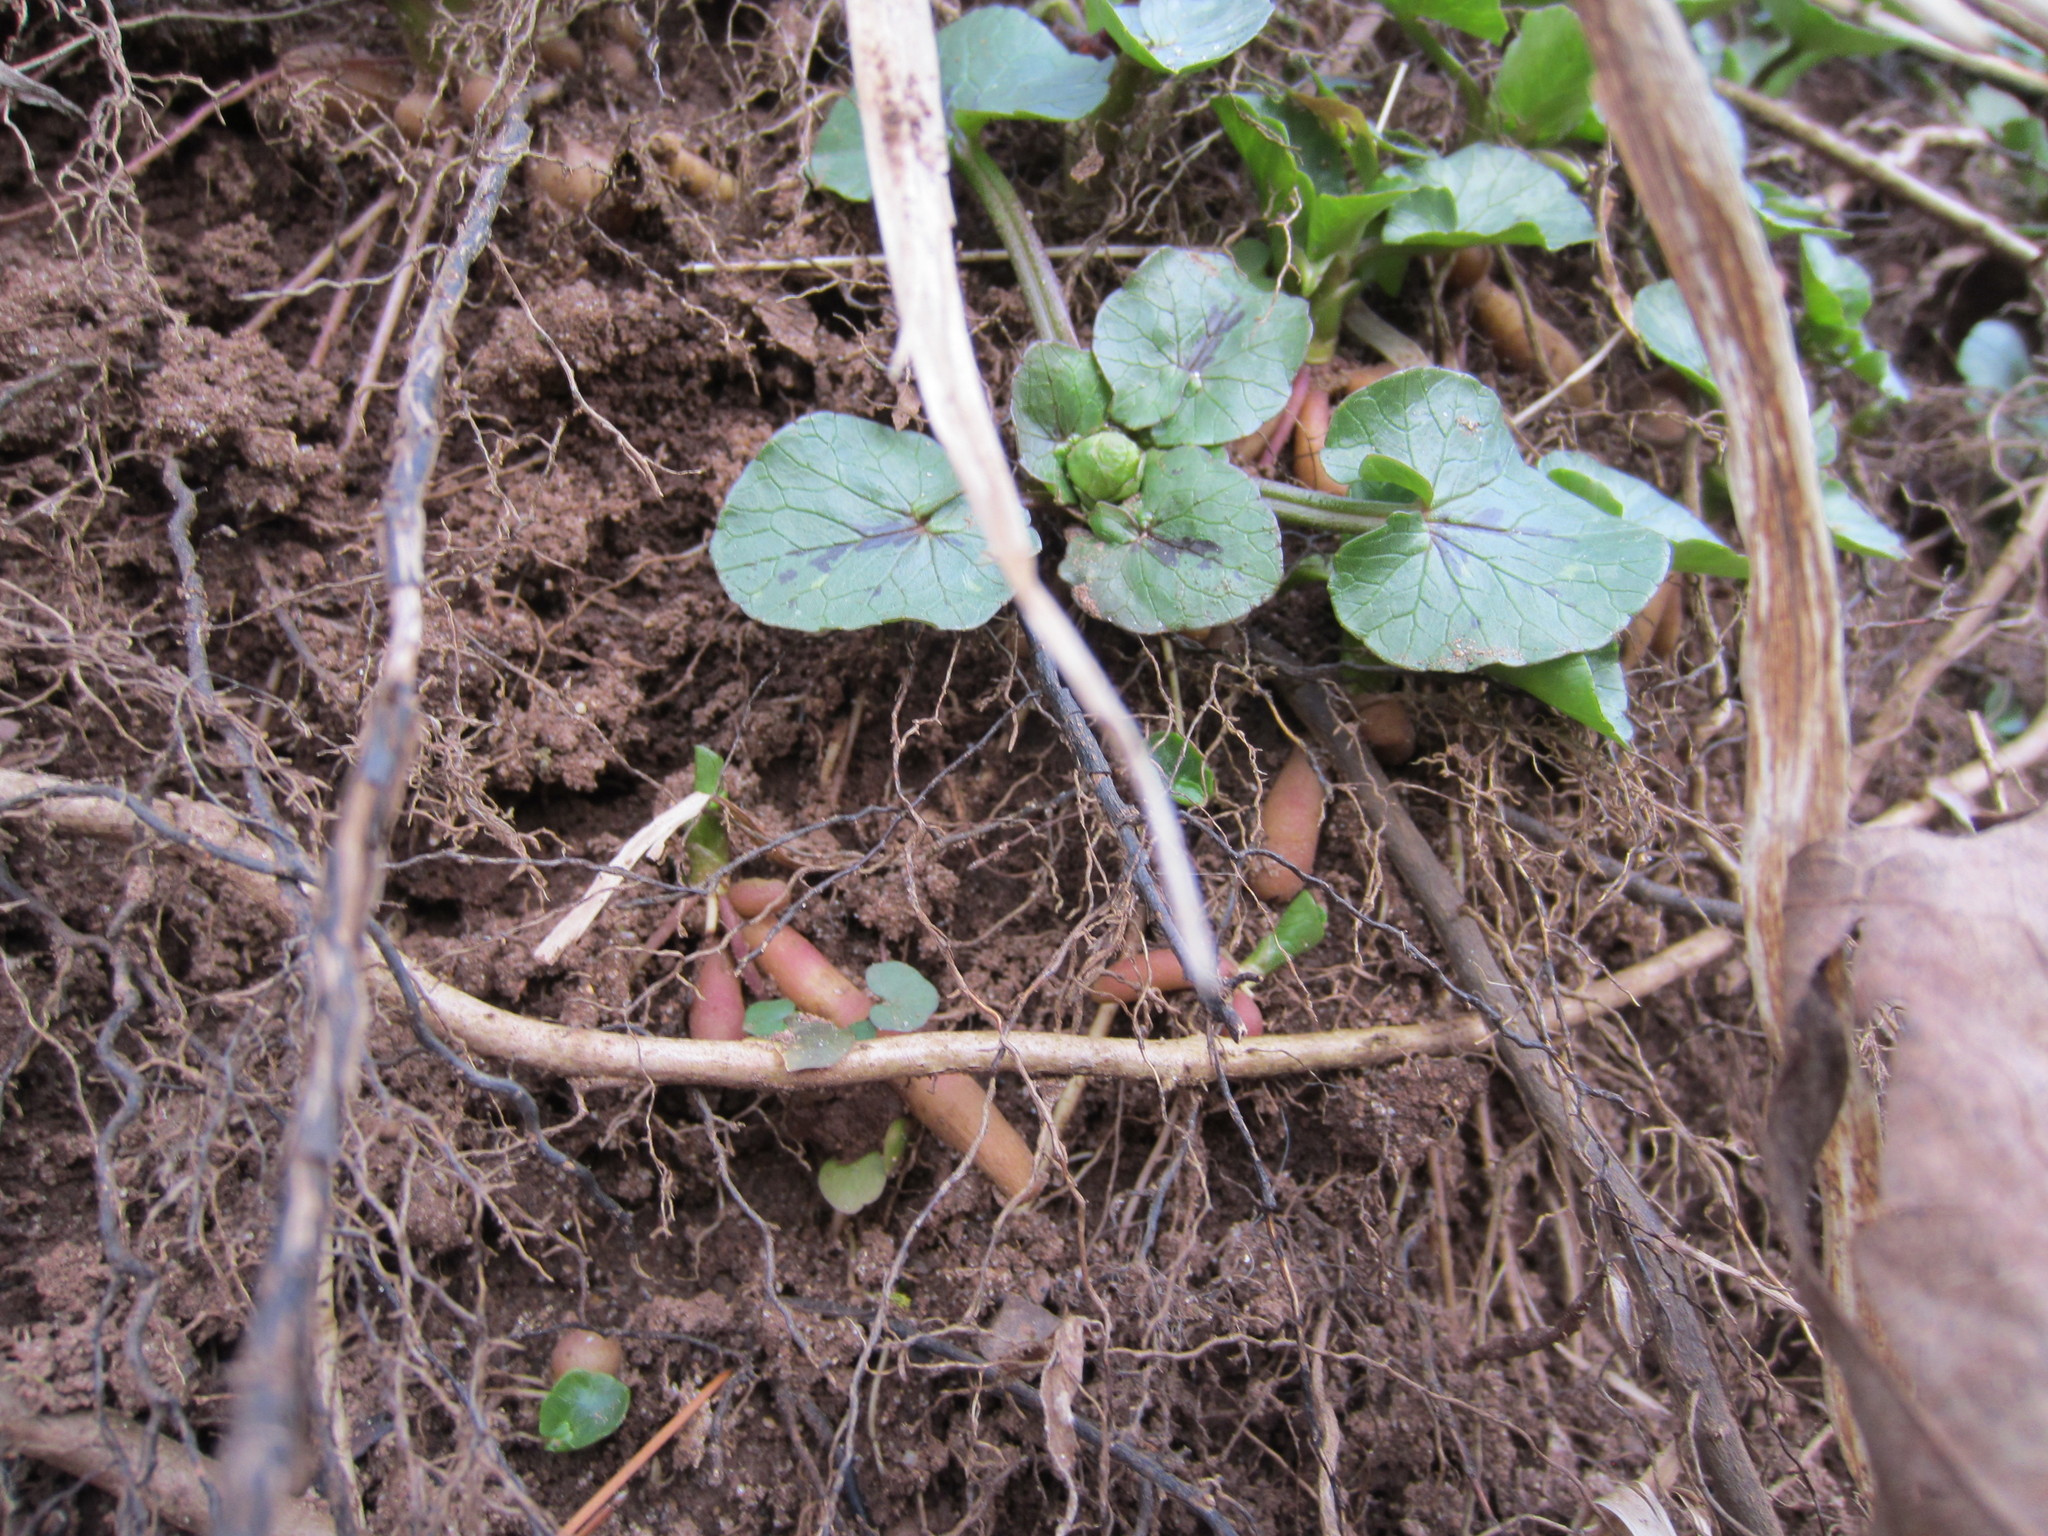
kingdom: Plantae
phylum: Tracheophyta
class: Magnoliopsida
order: Ranunculales
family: Ranunculaceae
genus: Ficaria
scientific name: Ficaria verna
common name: Lesser celandine
